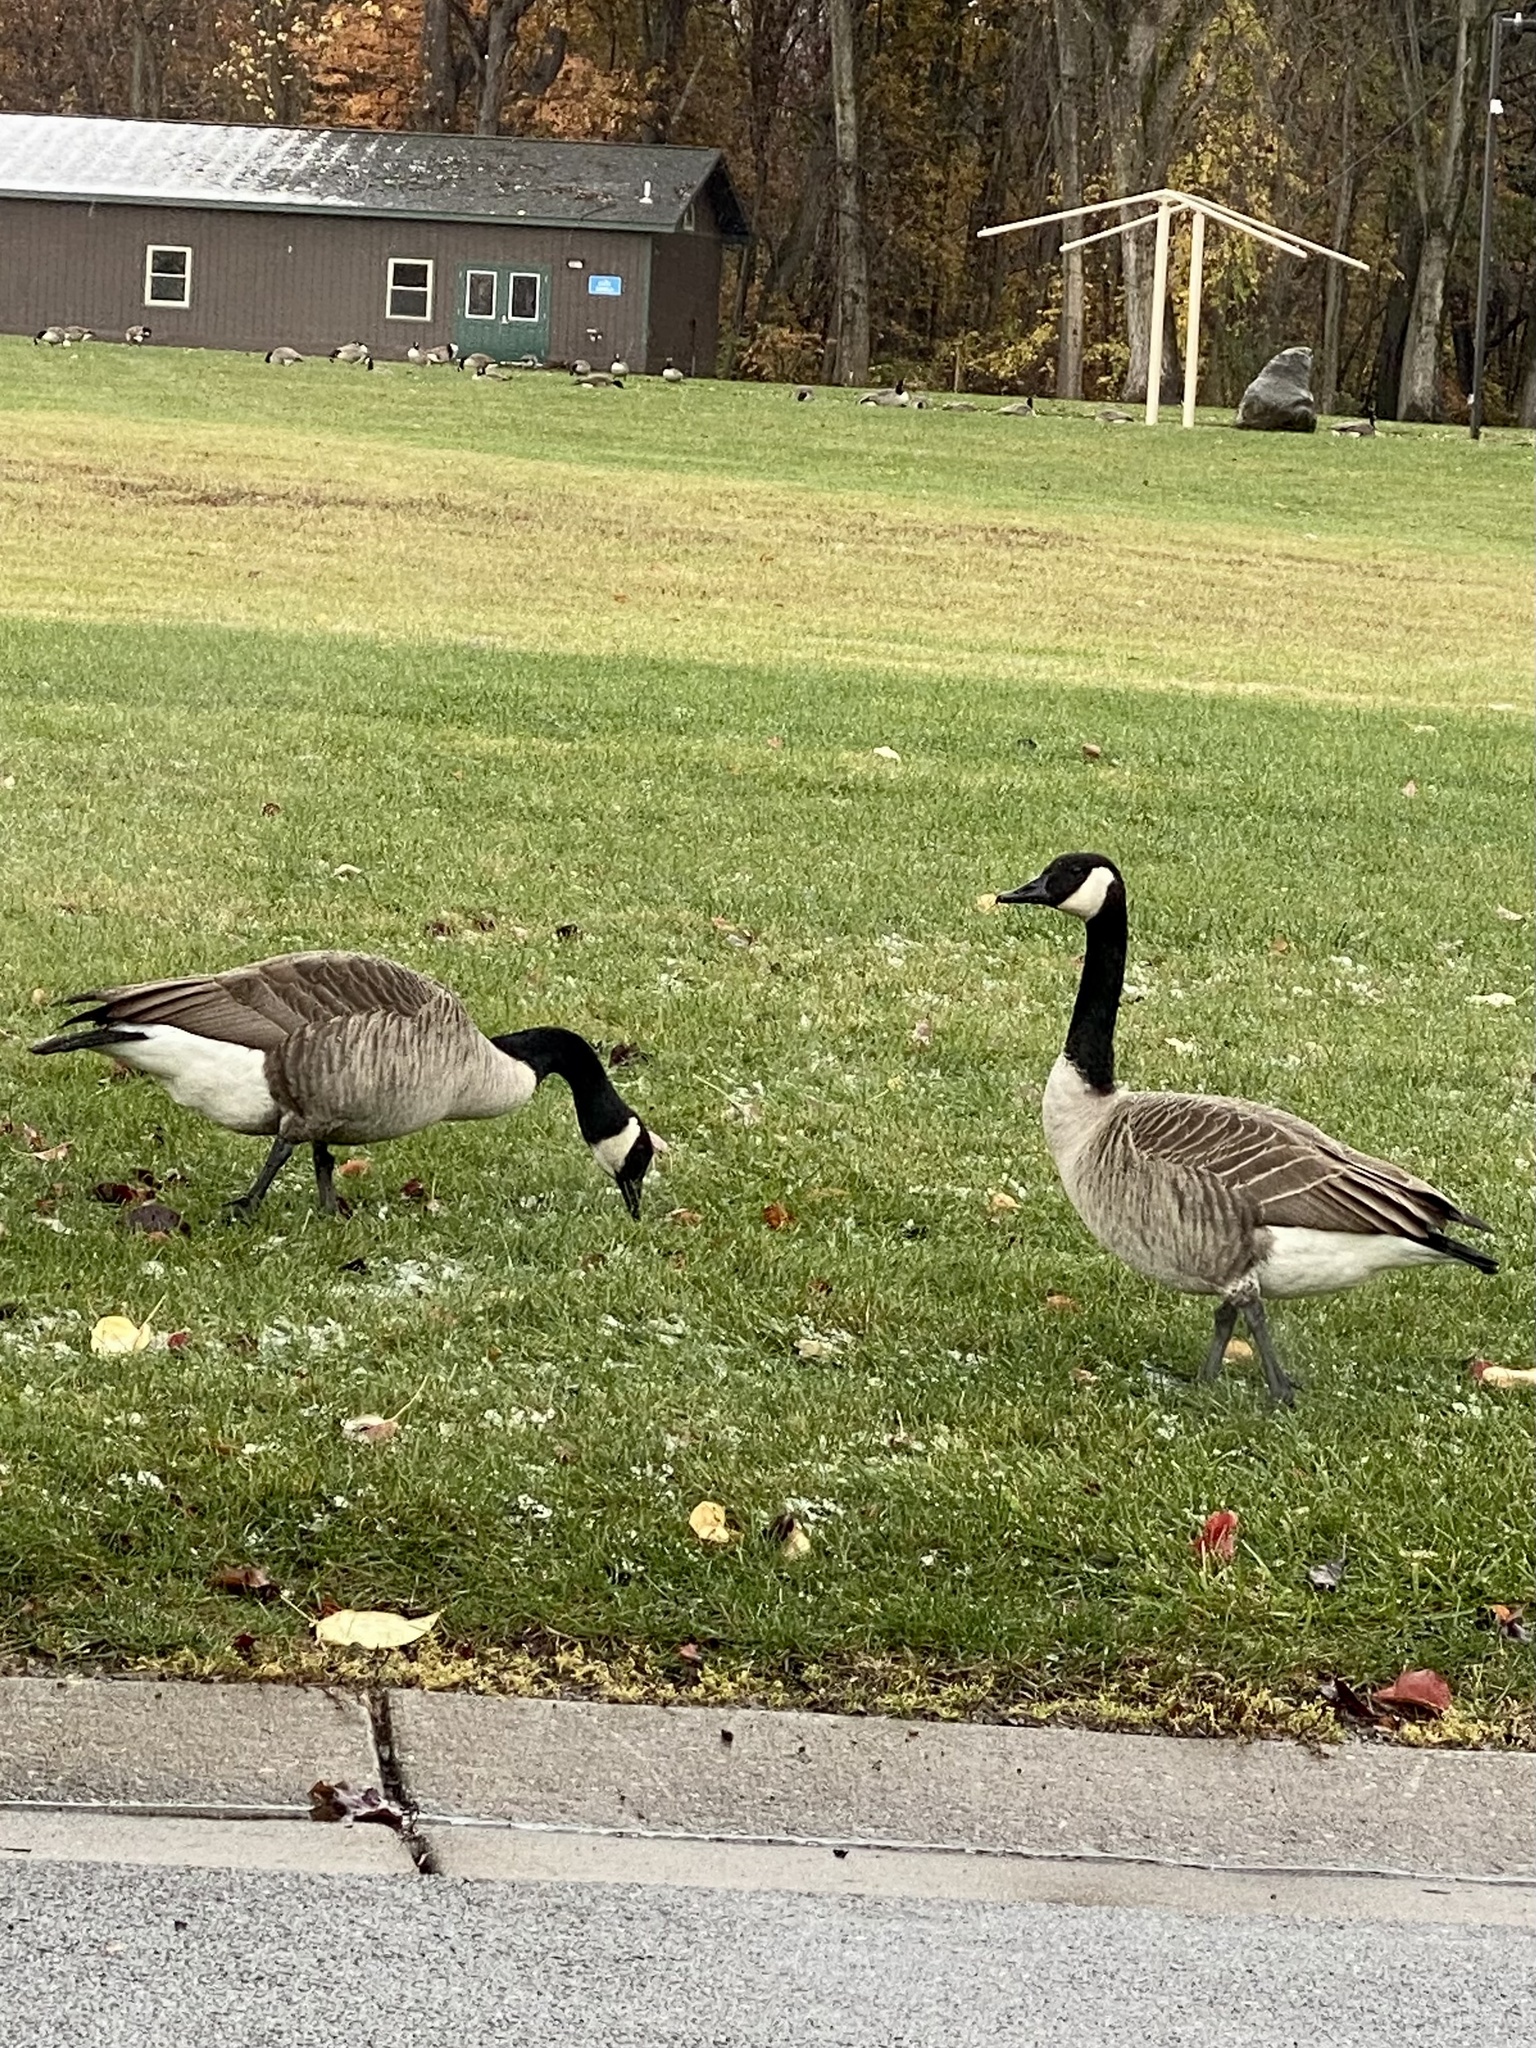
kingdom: Animalia
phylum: Chordata
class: Aves
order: Anseriformes
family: Anatidae
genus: Branta
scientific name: Branta canadensis
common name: Canada goose
